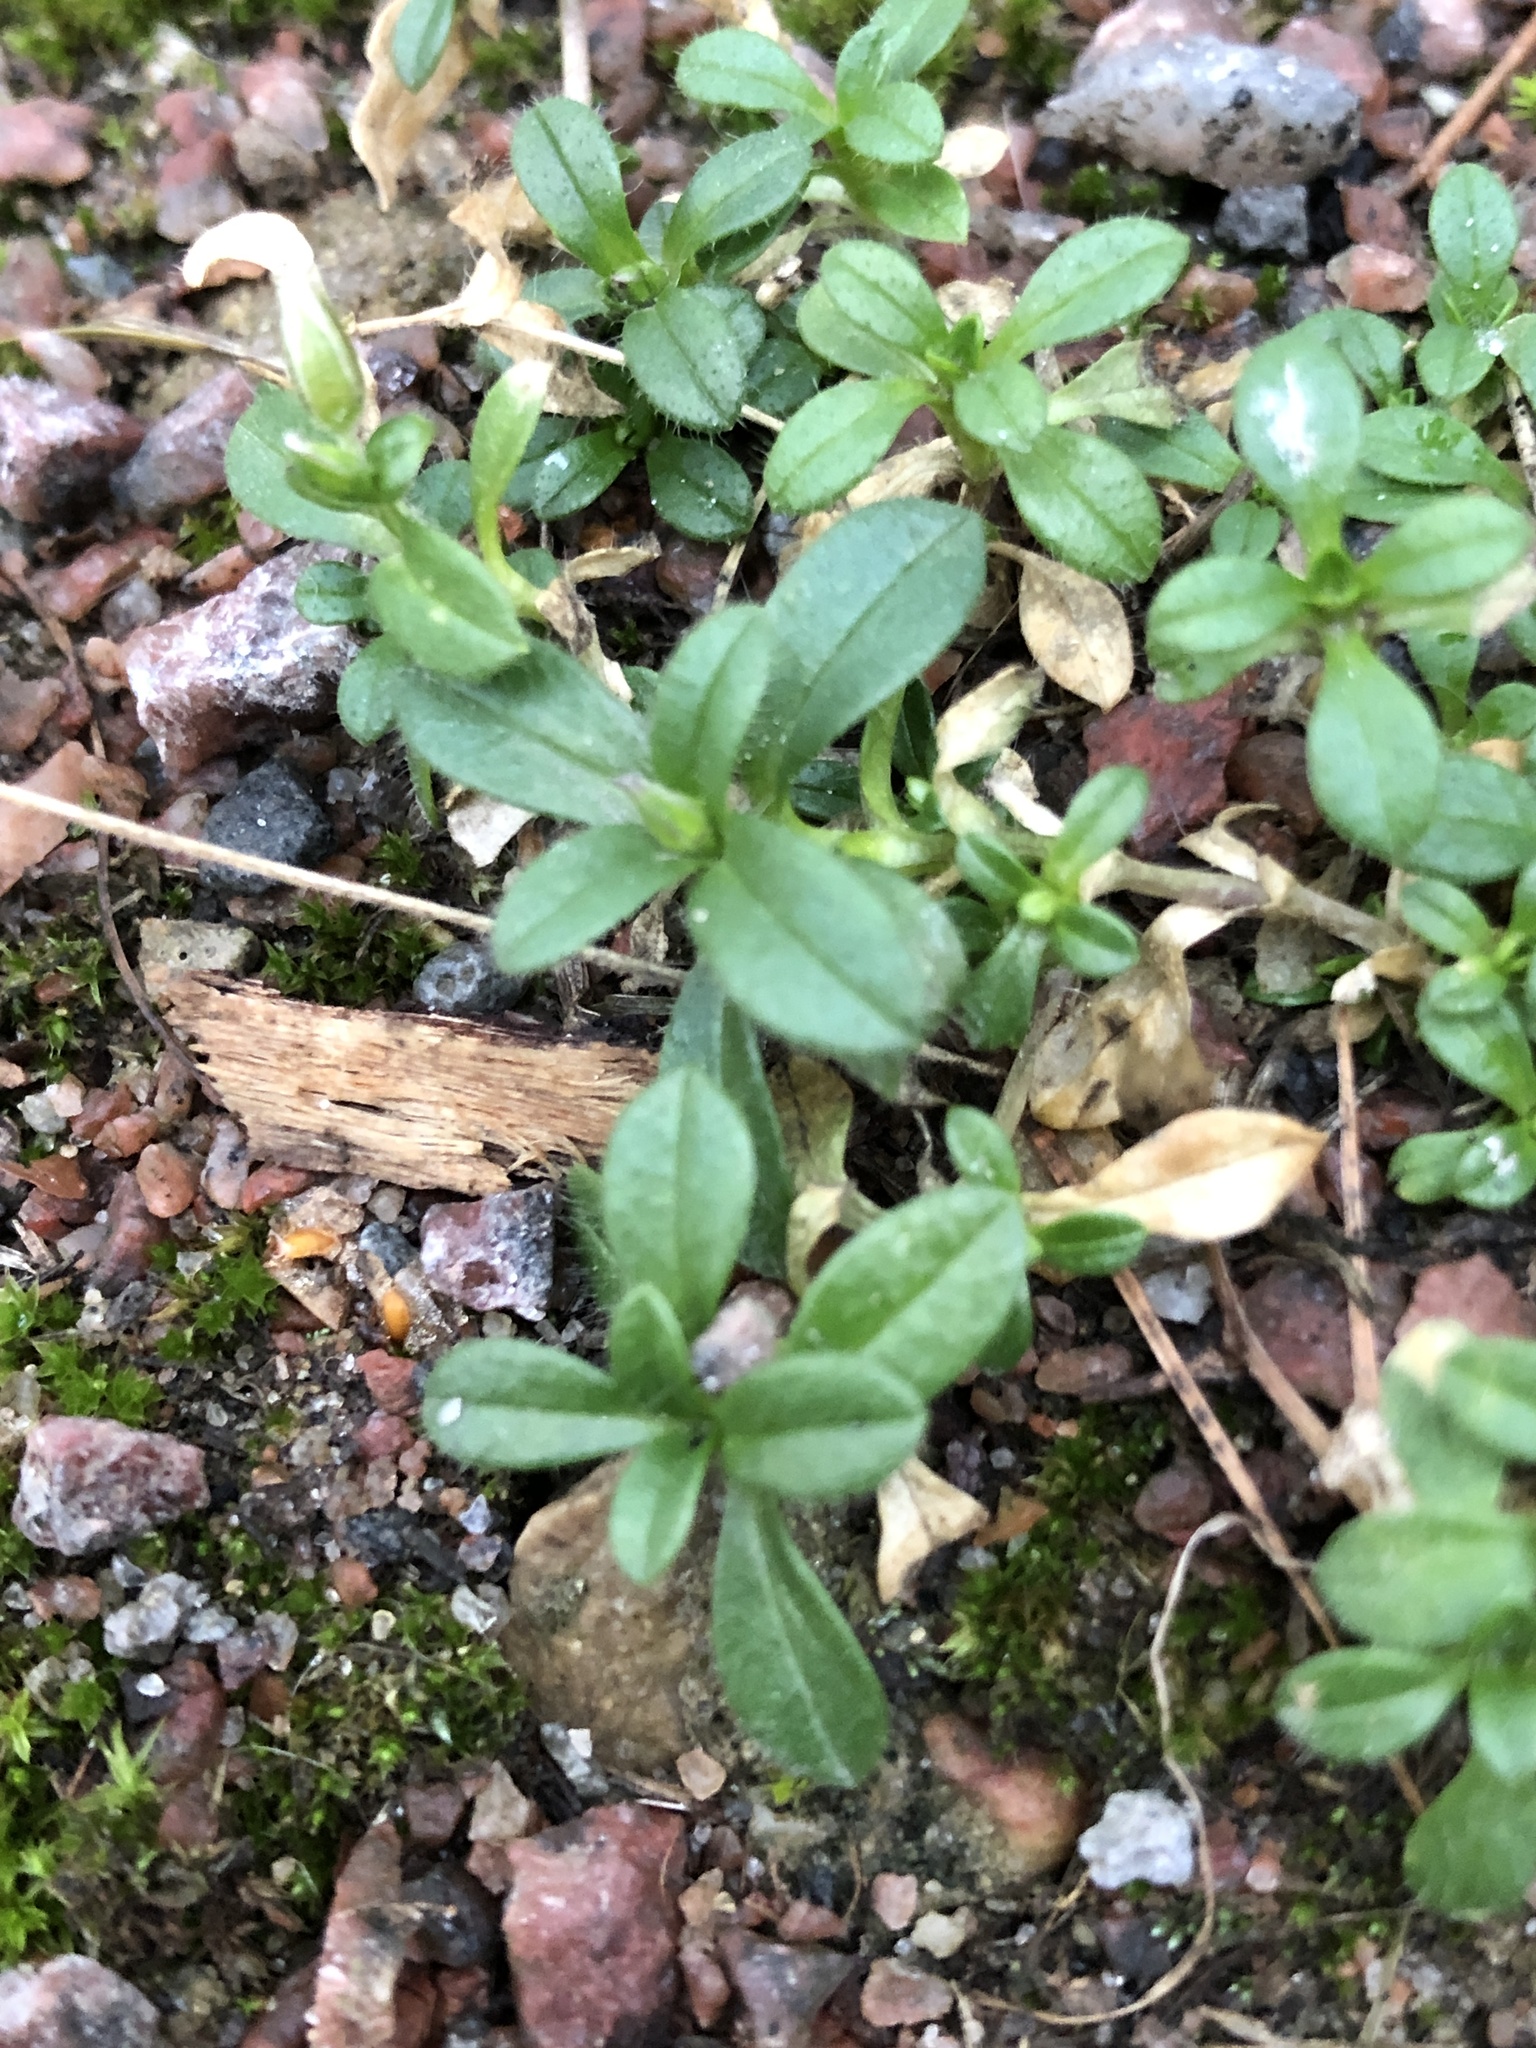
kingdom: Plantae
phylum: Tracheophyta
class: Magnoliopsida
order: Caryophyllales
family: Caryophyllaceae
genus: Cerastium
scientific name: Cerastium holosteoides
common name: Big chickweed
